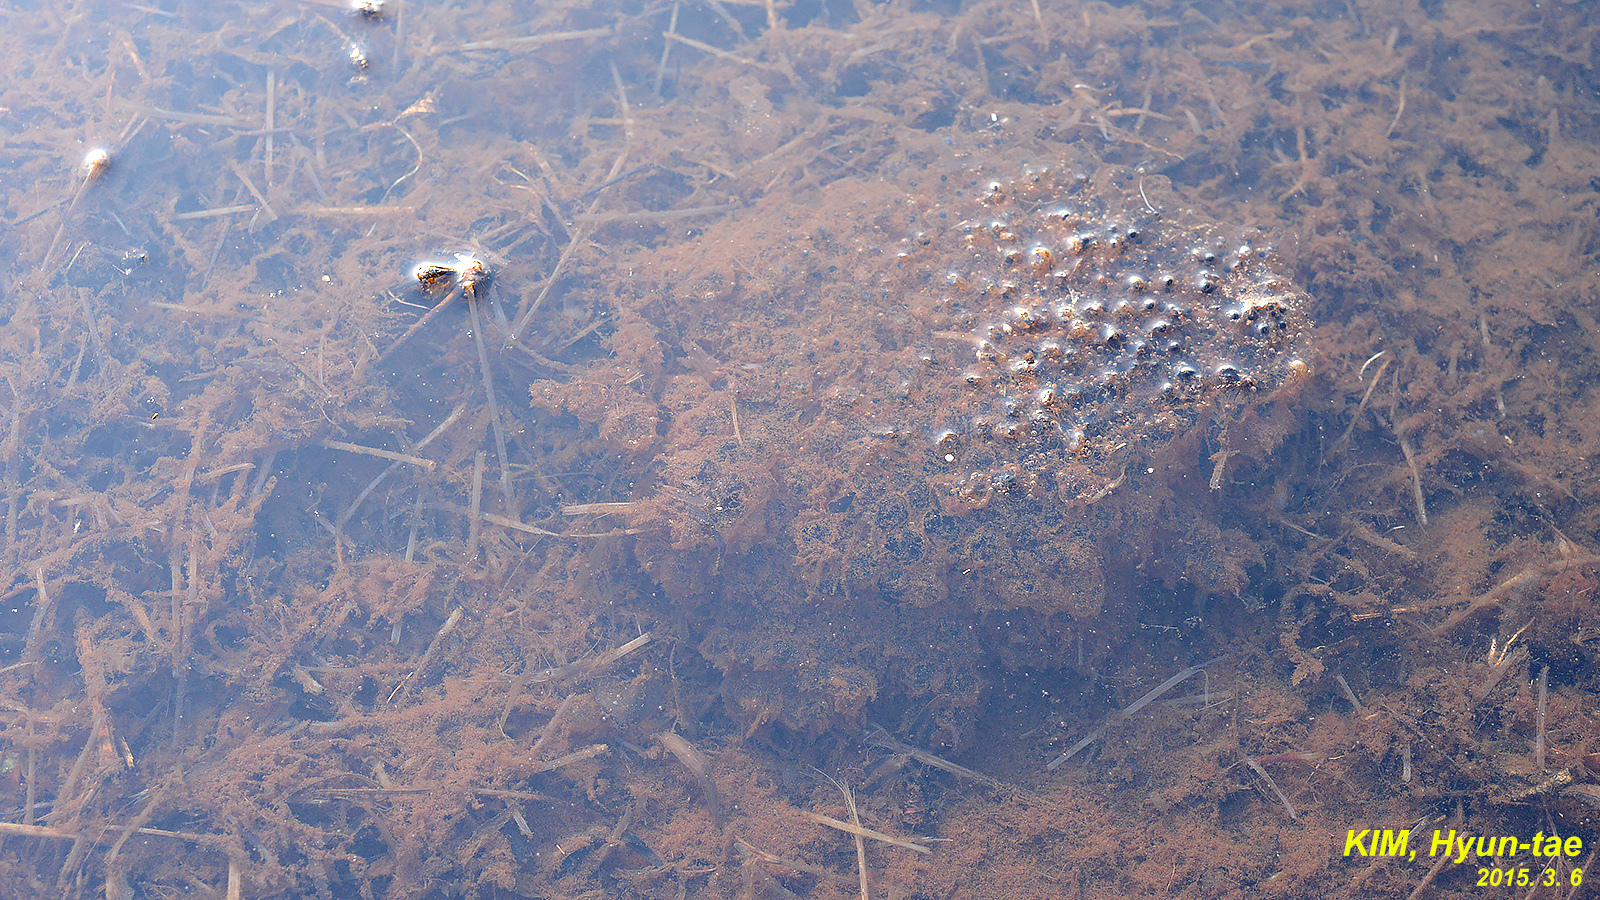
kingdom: Animalia
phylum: Chordata
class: Amphibia
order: Anura
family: Ranidae
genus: Rana
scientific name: Rana uenoi
